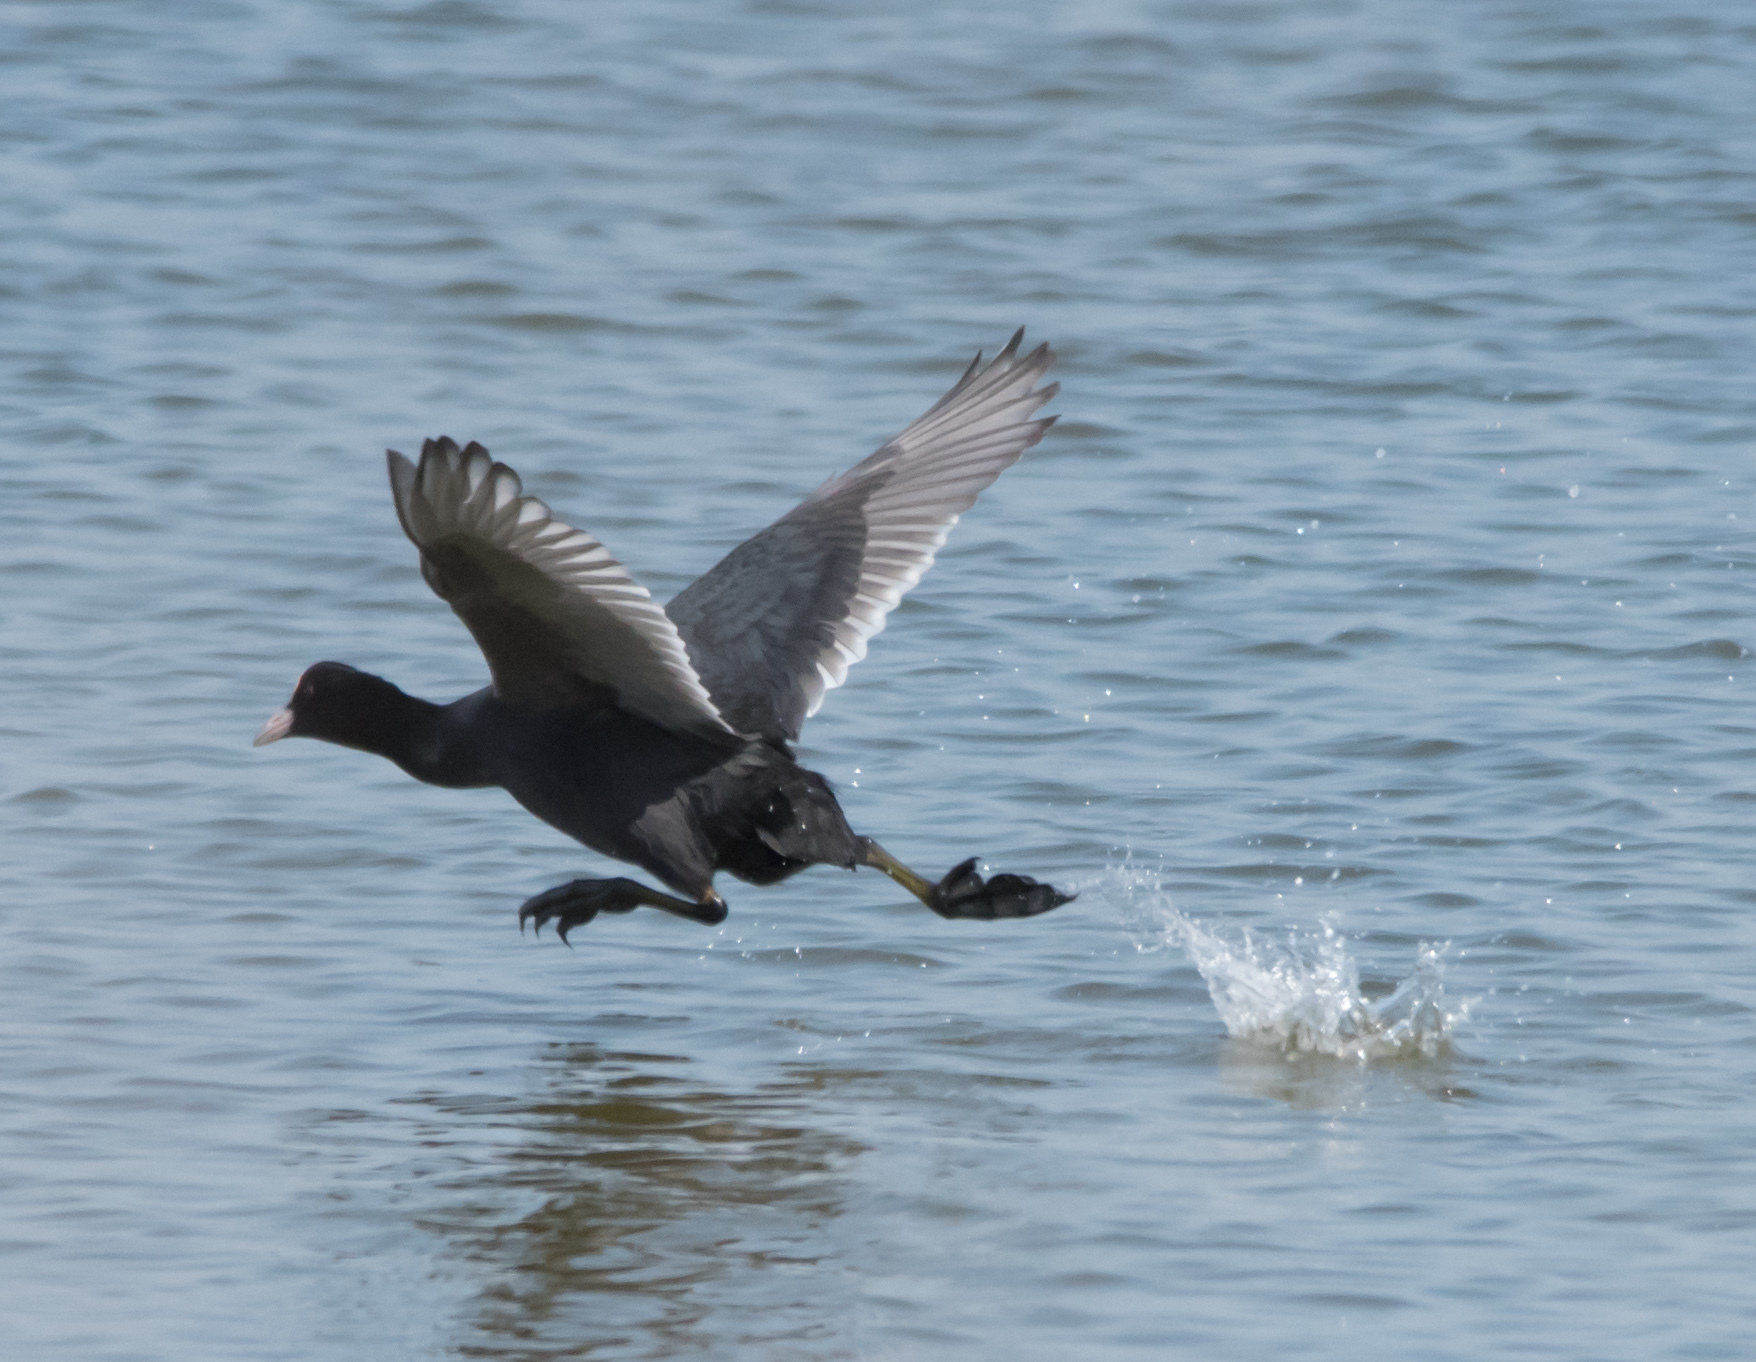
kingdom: Animalia
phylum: Chordata
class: Aves
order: Gruiformes
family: Rallidae
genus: Fulica
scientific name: Fulica atra
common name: Eurasian coot
